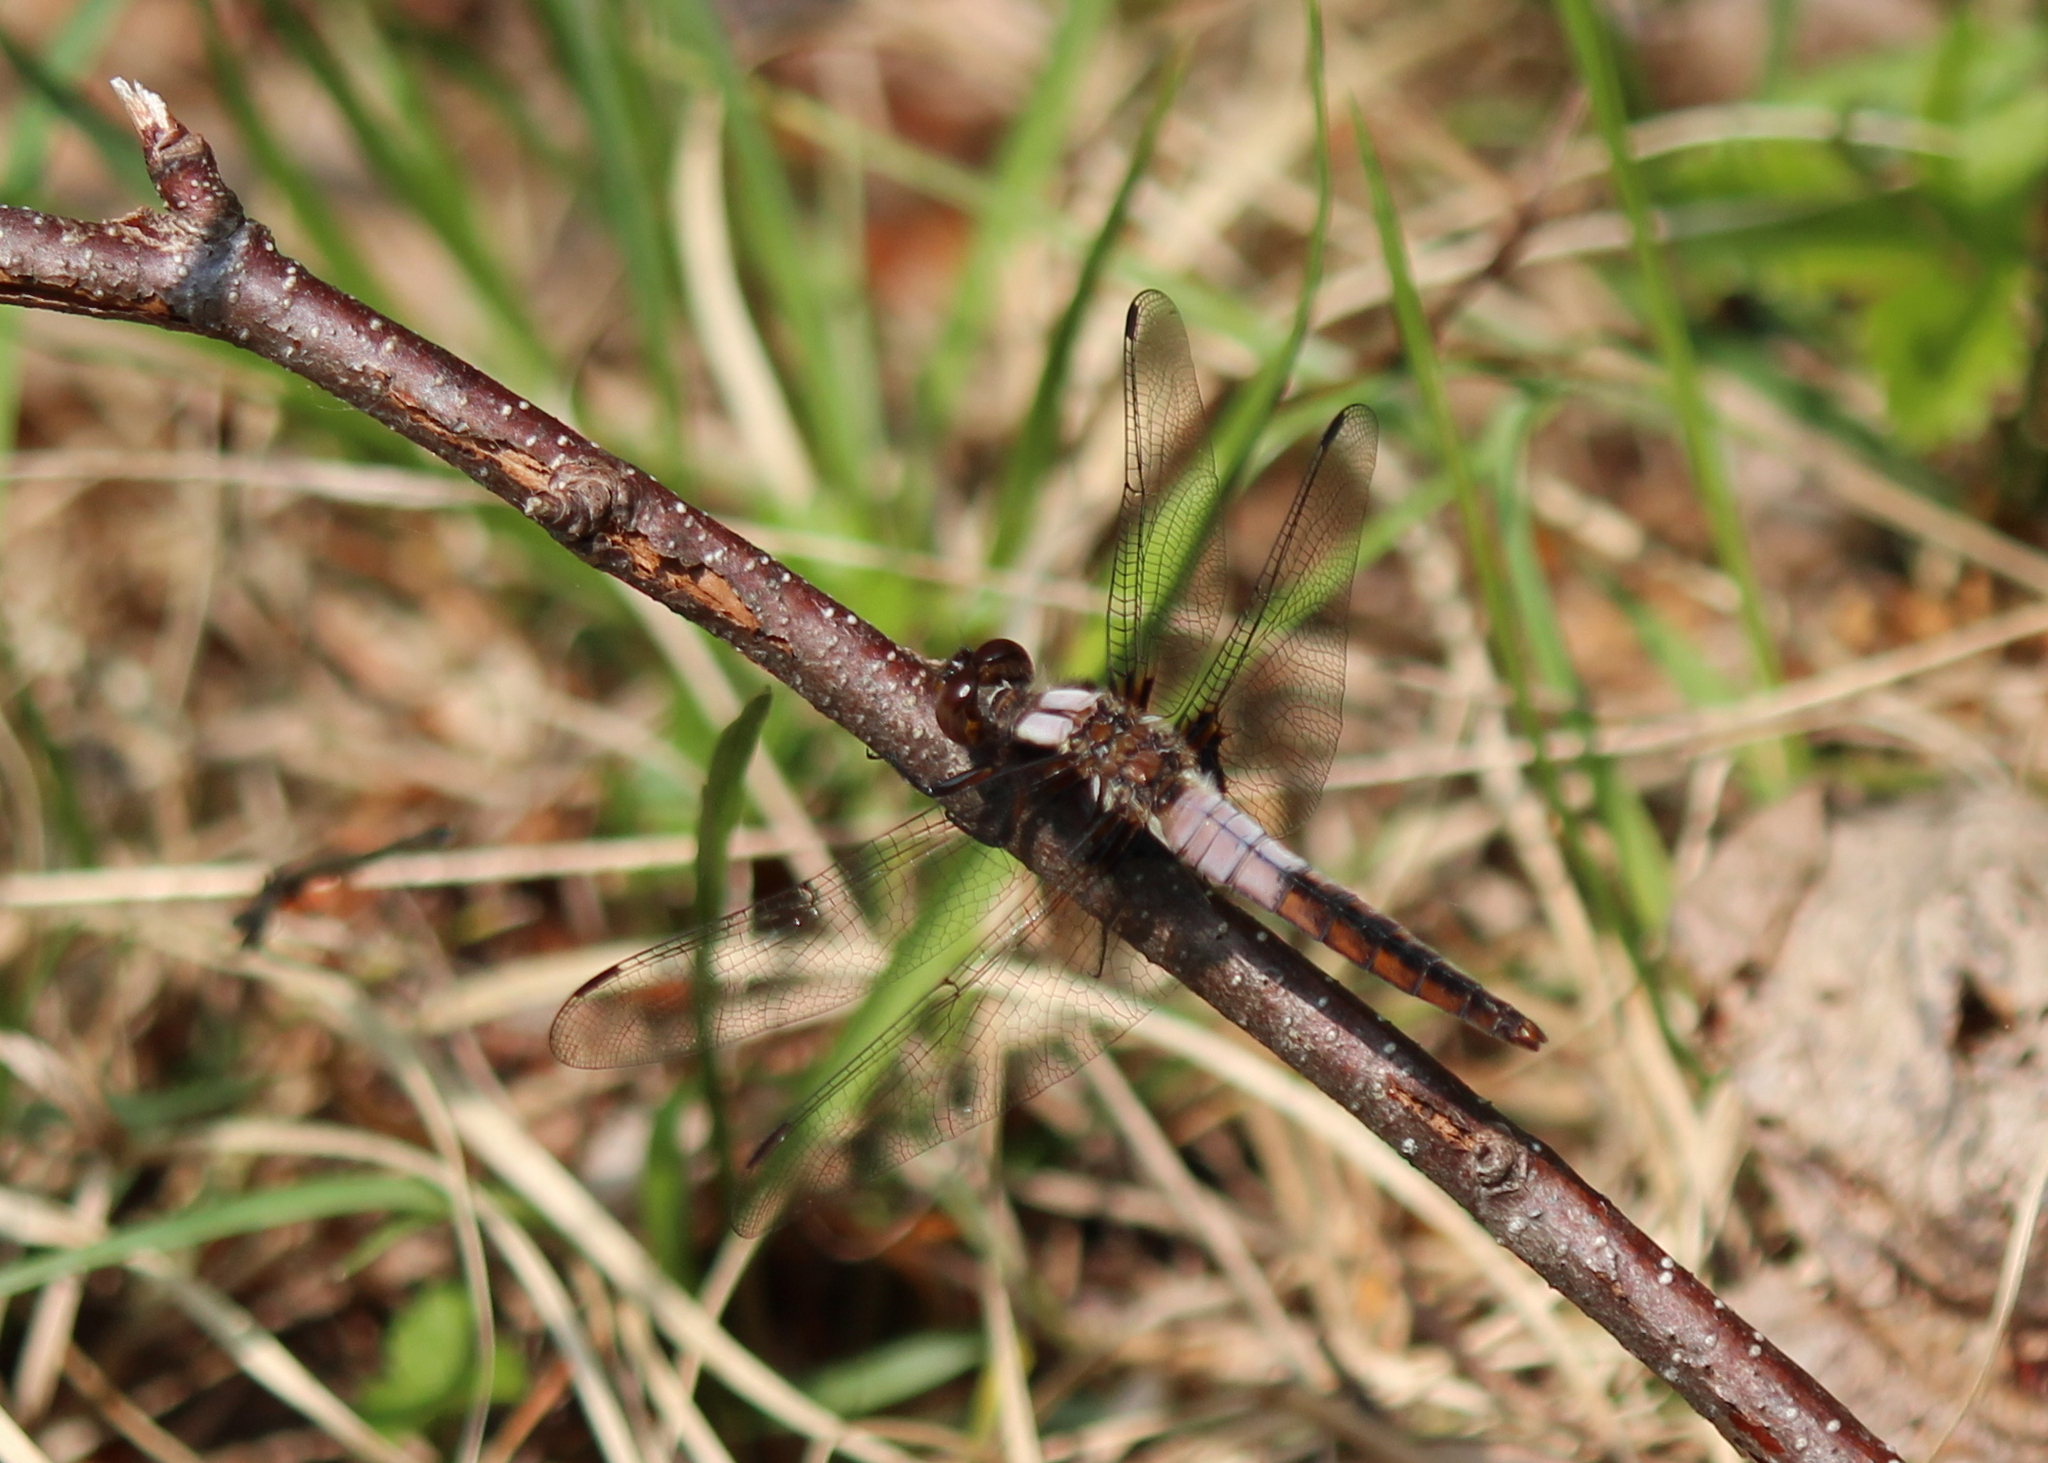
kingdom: Animalia
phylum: Arthropoda
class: Insecta
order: Odonata
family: Libellulidae
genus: Ladona
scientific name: Ladona julia
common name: Chalk-fronted corporal
